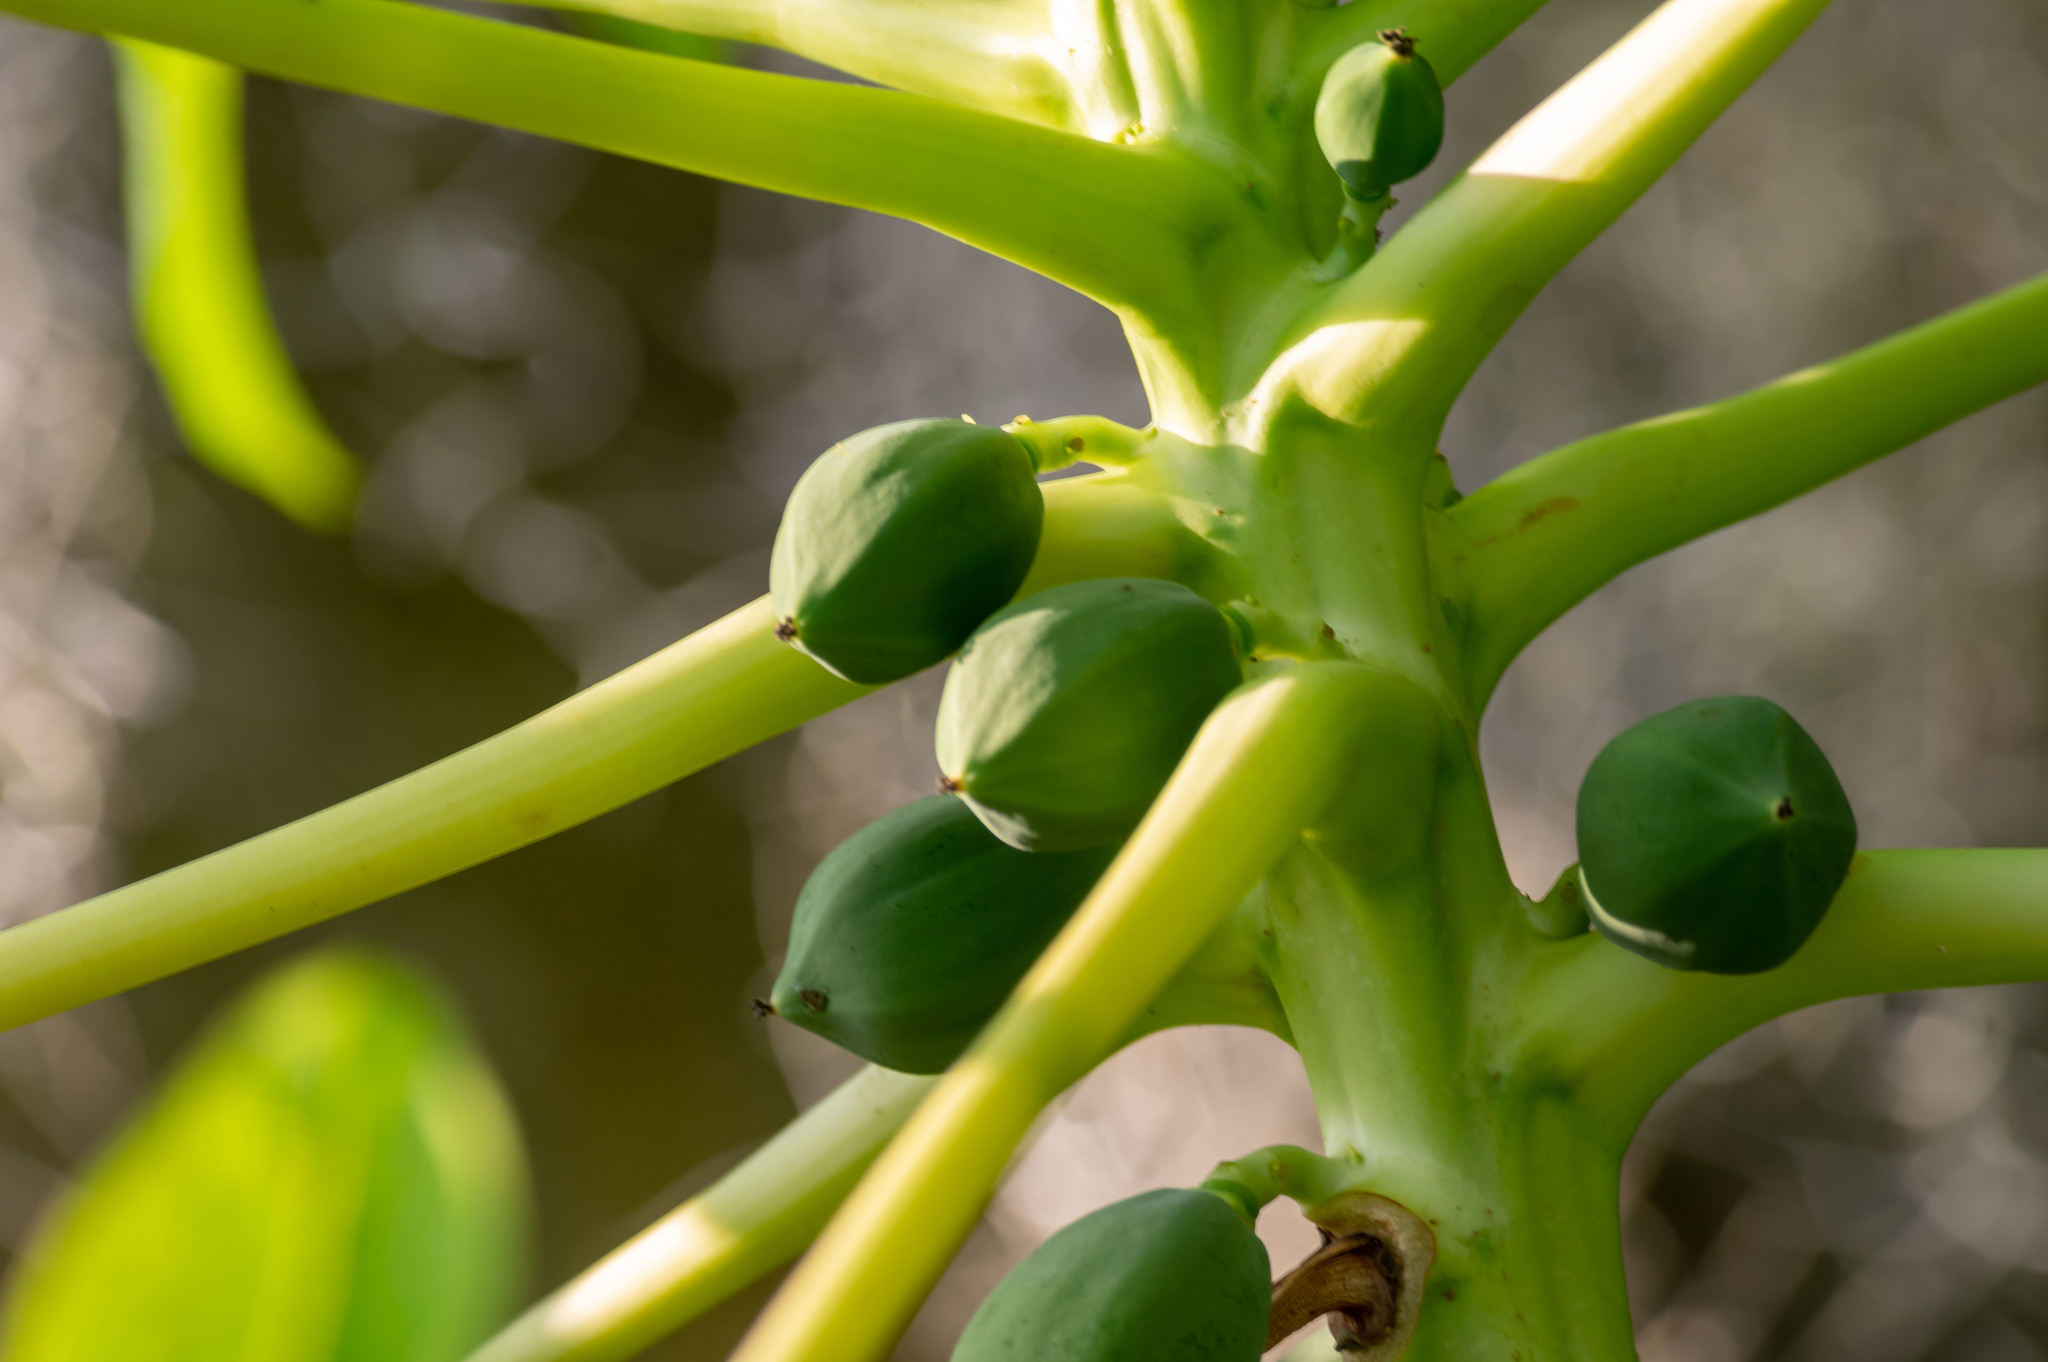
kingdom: Plantae
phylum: Tracheophyta
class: Magnoliopsida
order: Brassicales
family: Caricaceae
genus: Carica
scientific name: Carica papaya
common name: Papaya
